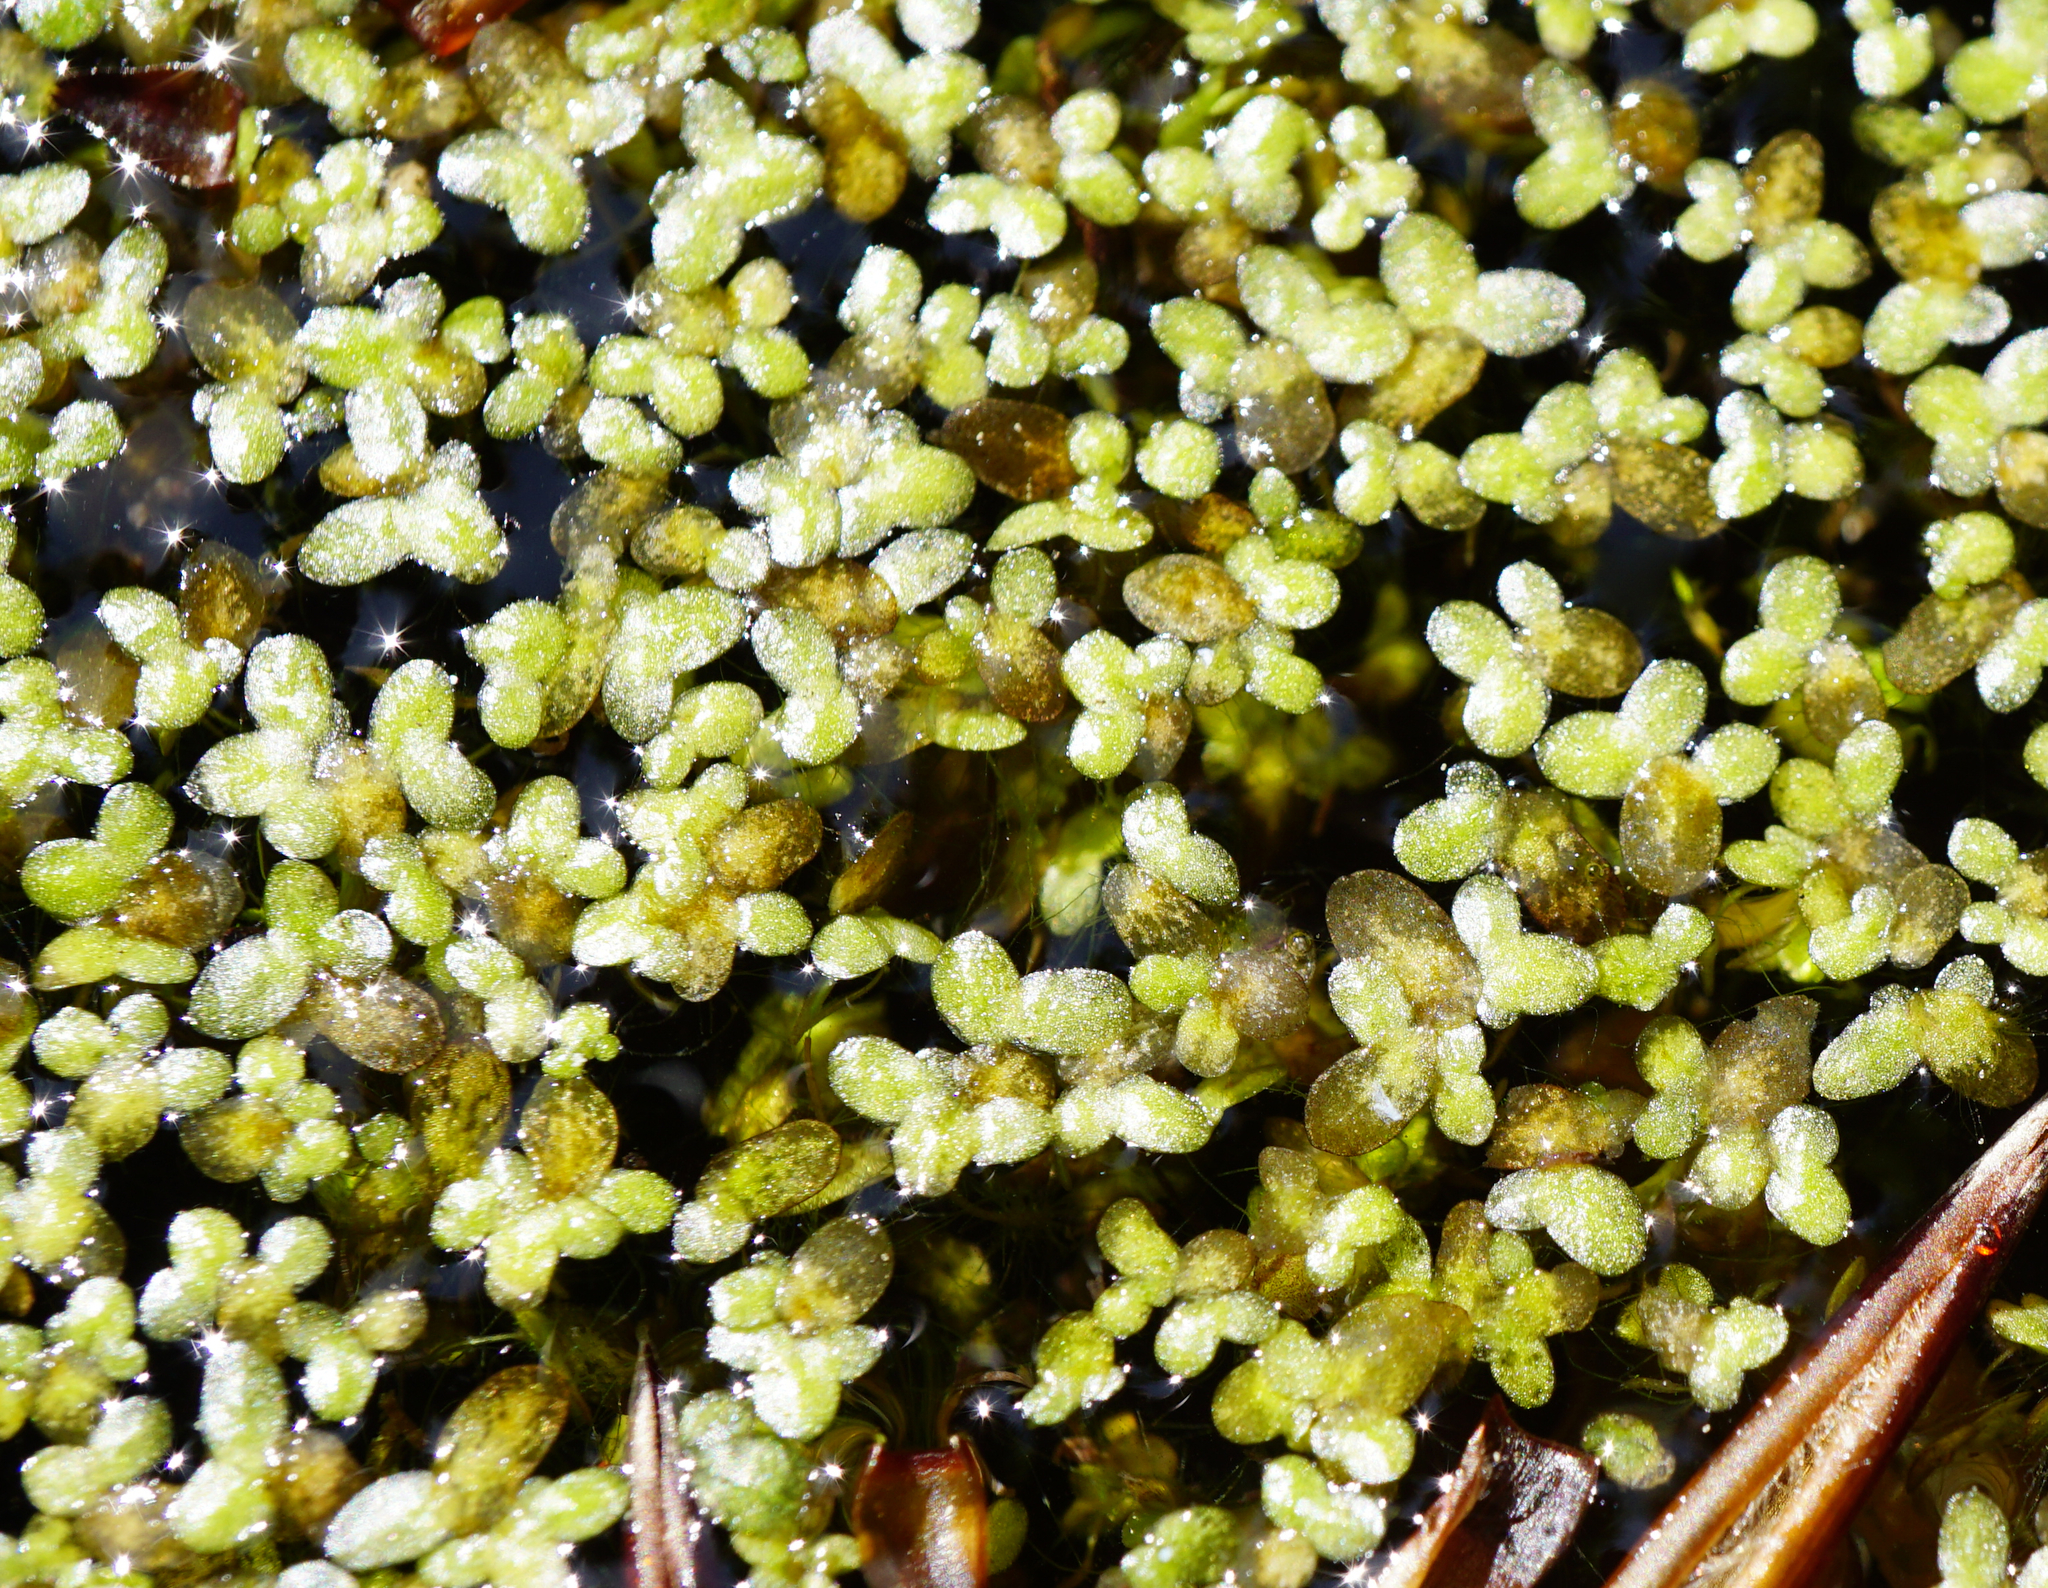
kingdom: Plantae
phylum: Tracheophyta
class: Liliopsida
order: Alismatales
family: Araceae
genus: Lemna
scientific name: Lemna minor
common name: Common duckweed
